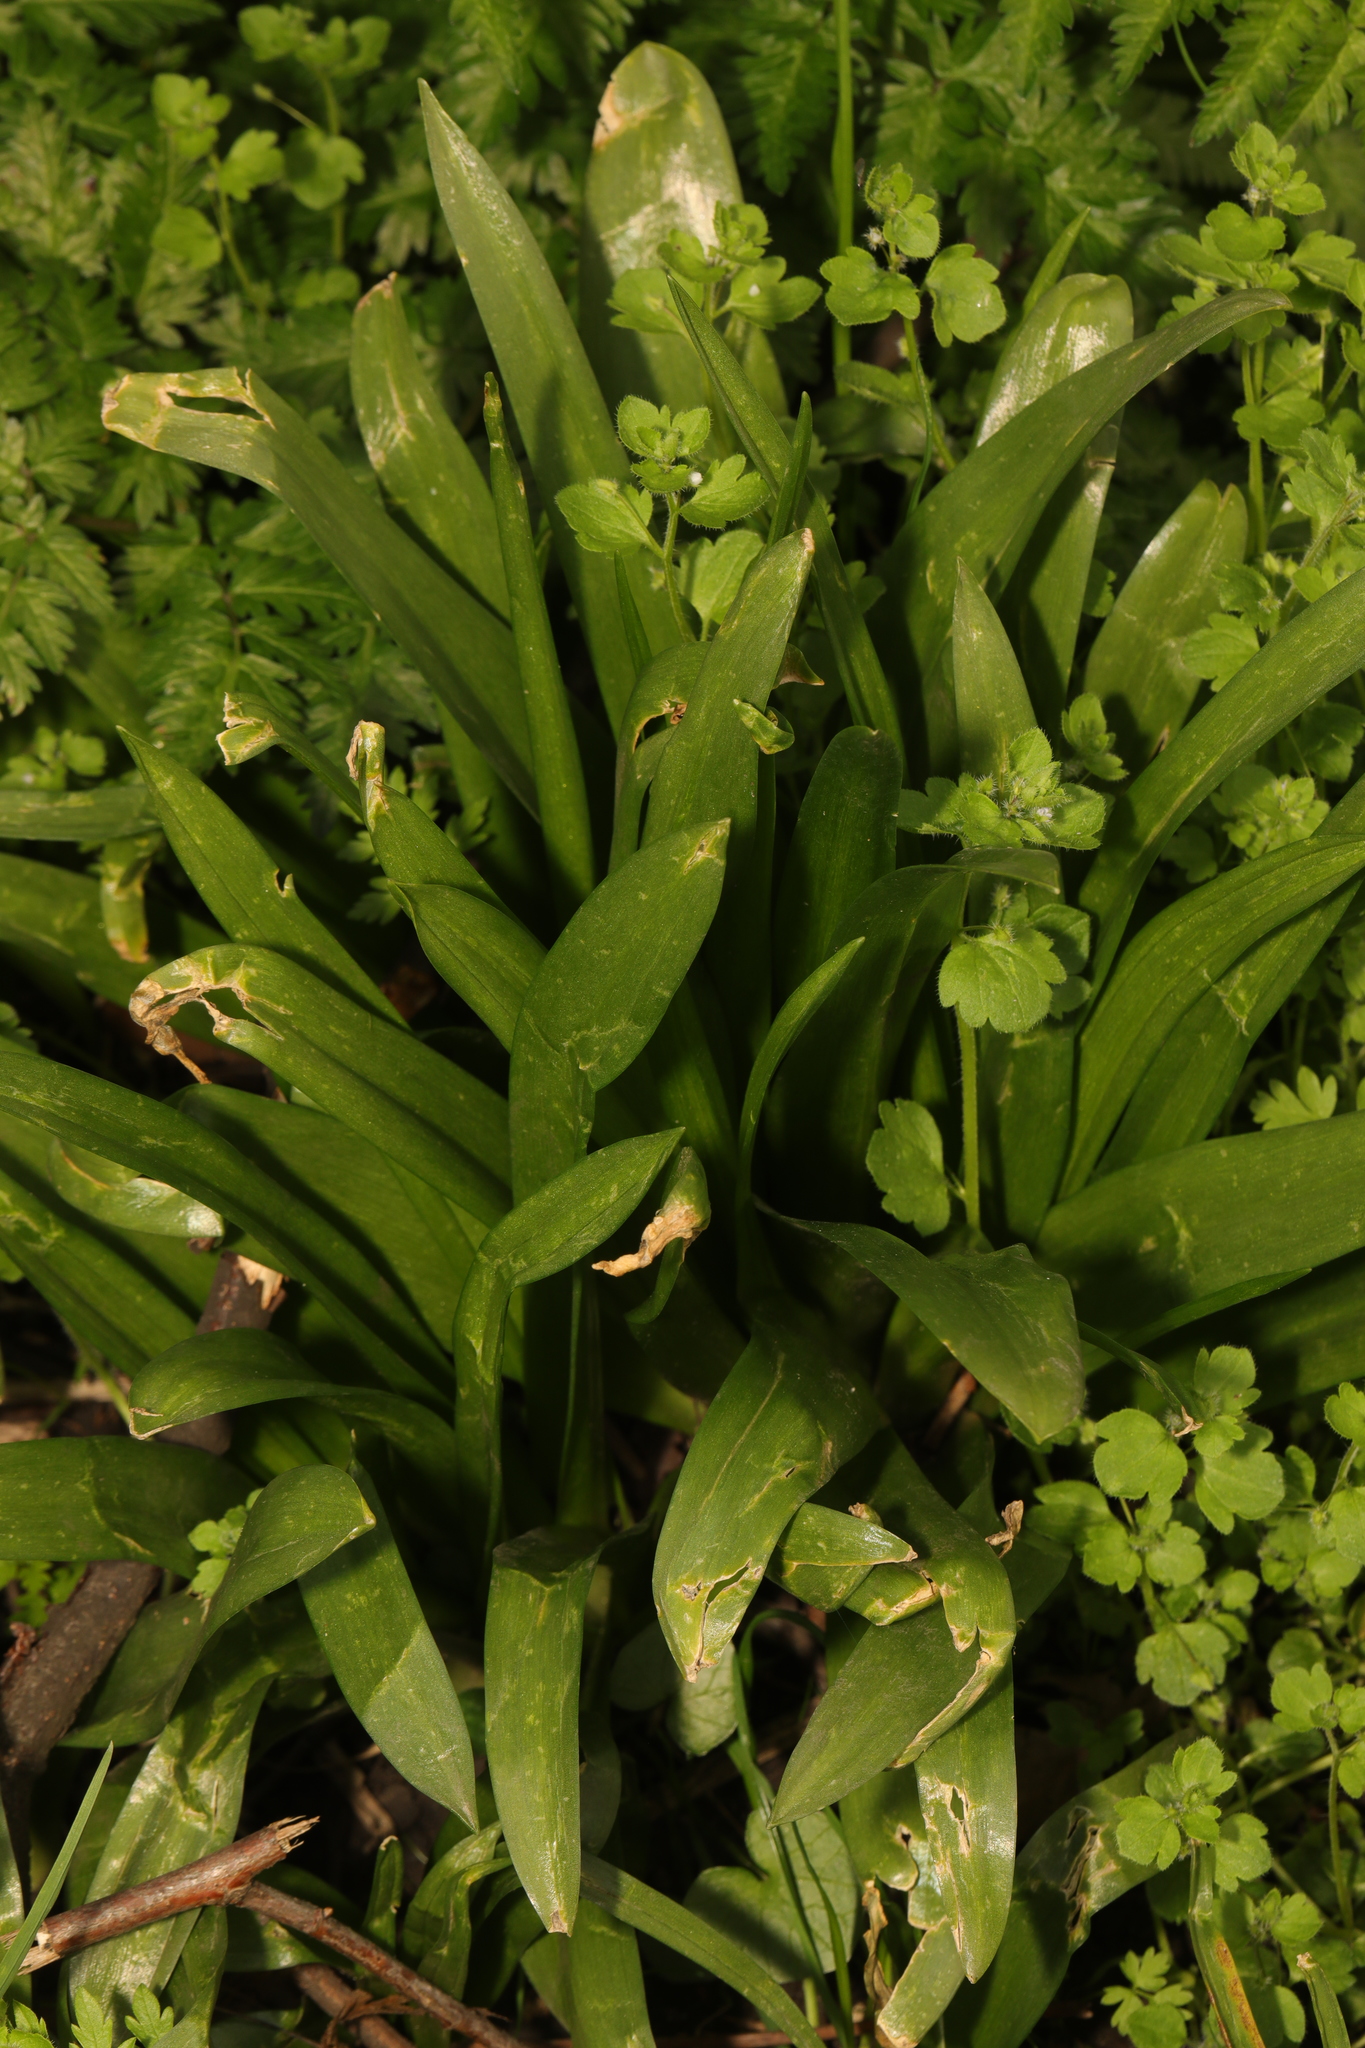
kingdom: Plantae
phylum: Tracheophyta
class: Liliopsida
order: Asparagales
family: Asparagaceae
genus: Hyacinthoides
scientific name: Hyacinthoides massartiana
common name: Hyacinthoides
